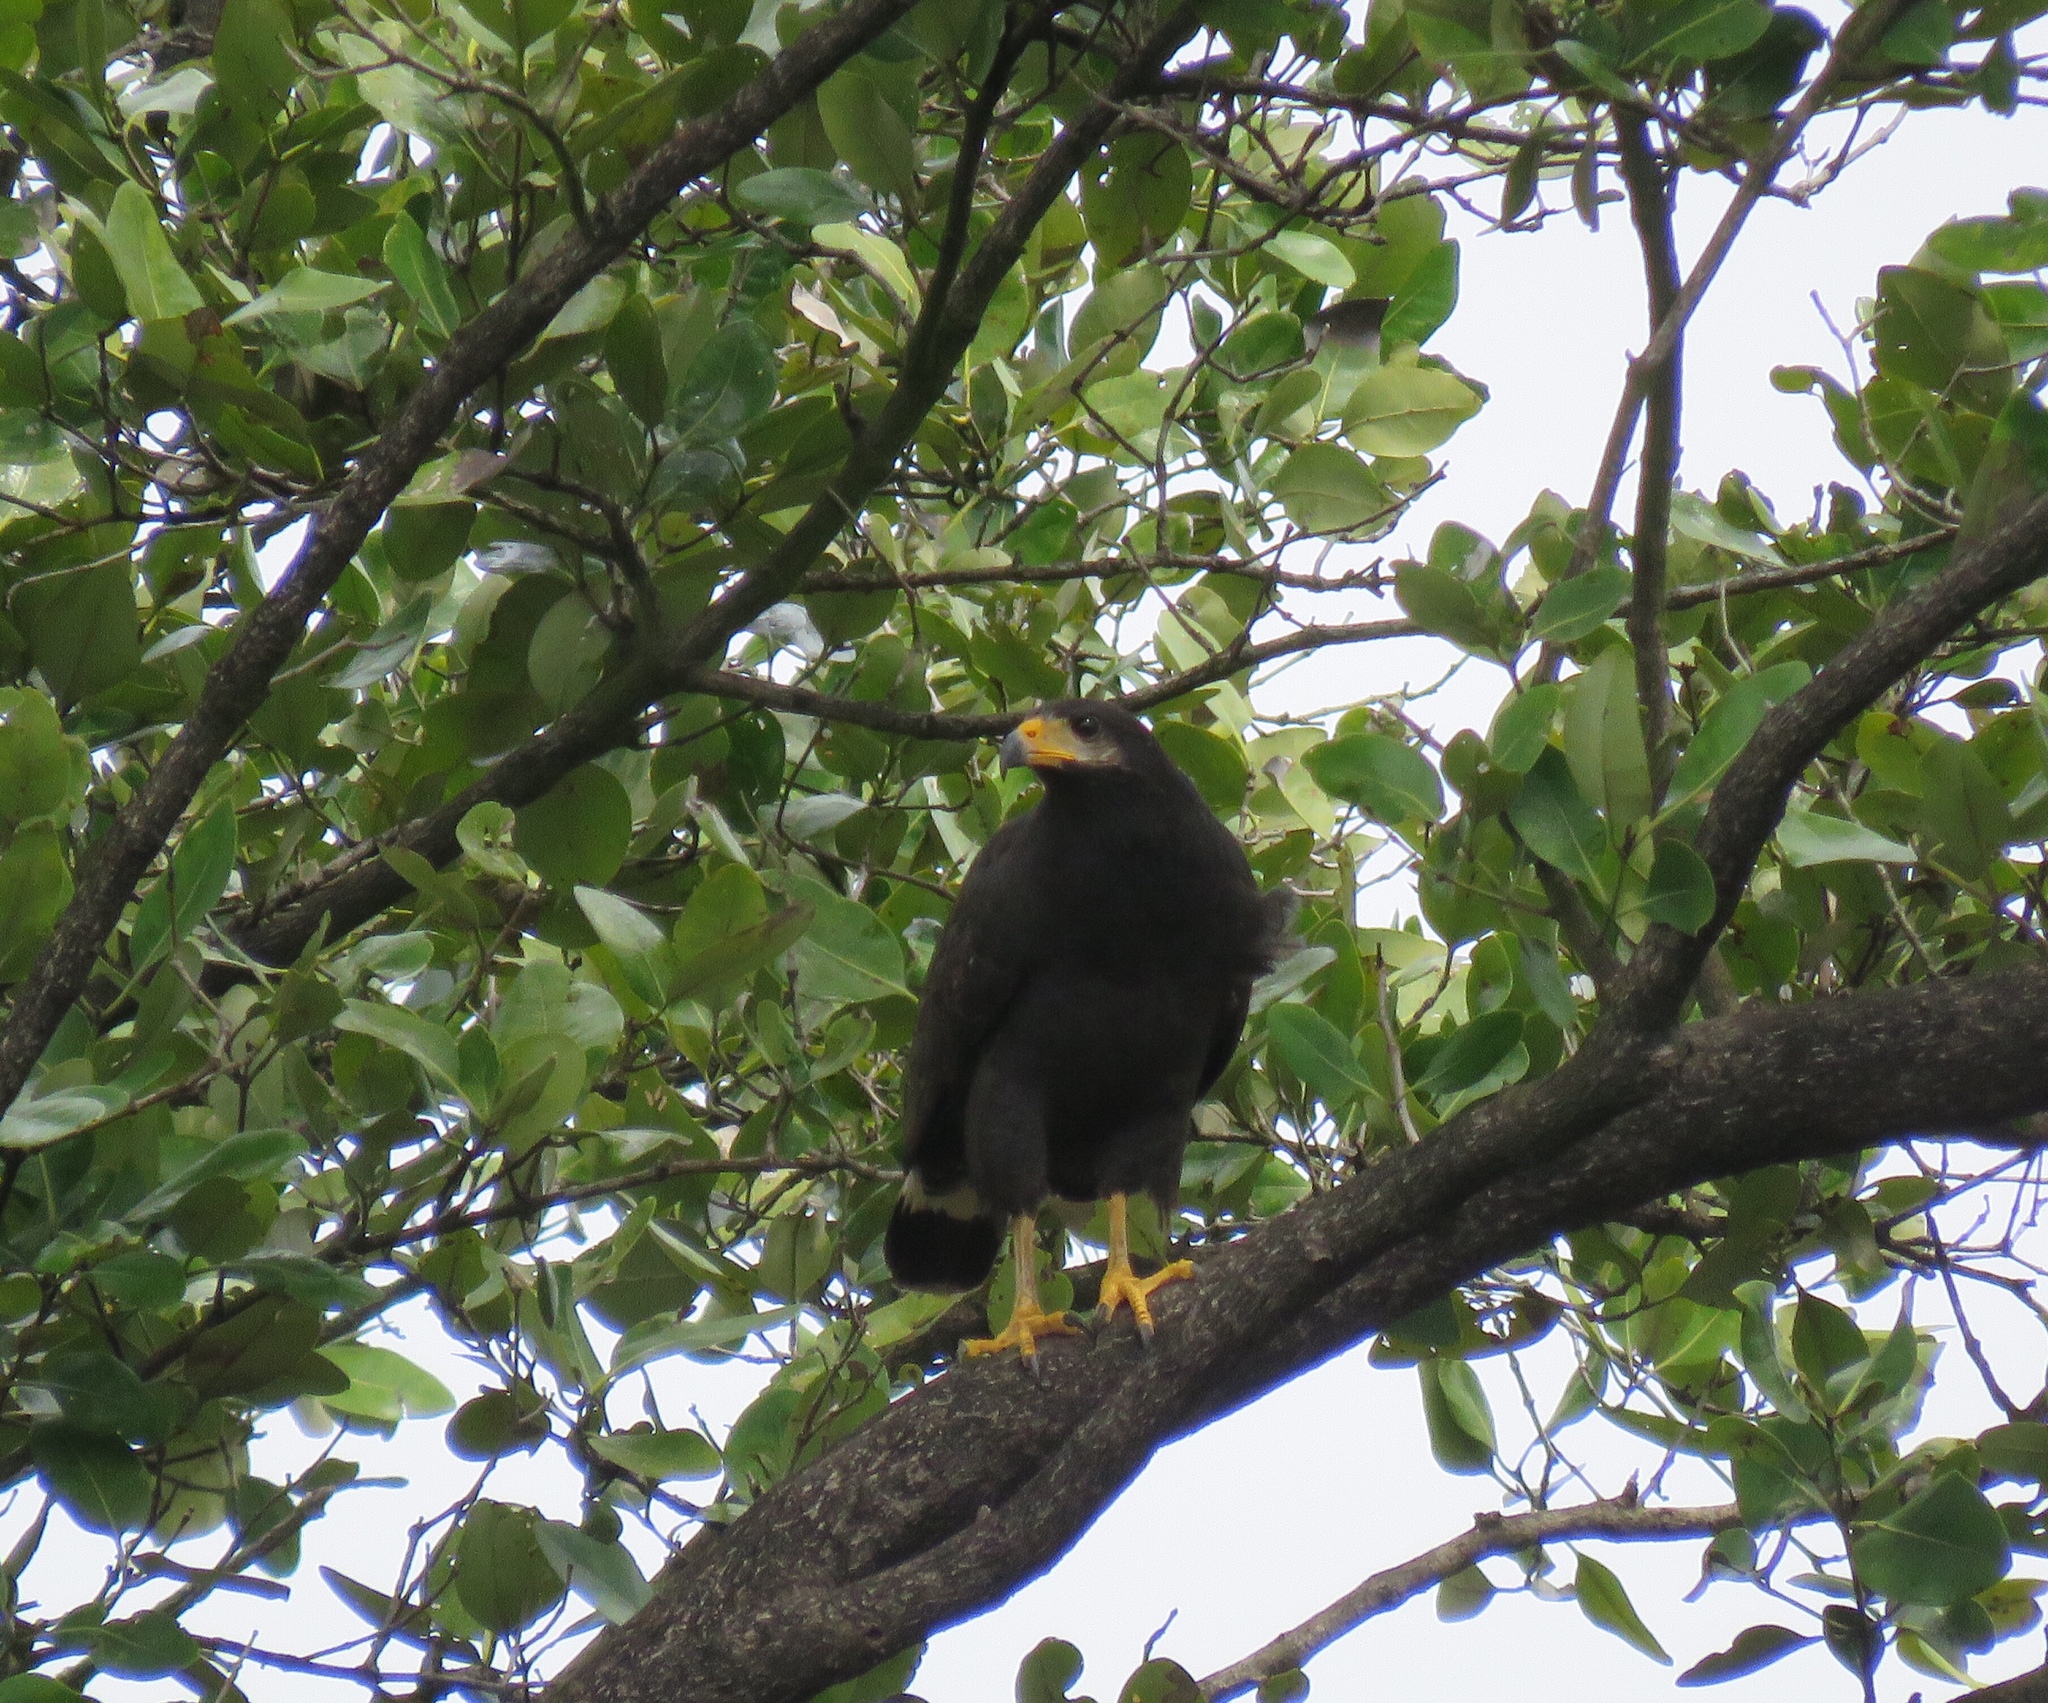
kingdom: Animalia
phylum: Chordata
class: Aves
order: Accipitriformes
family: Accipitridae
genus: Buteogallus
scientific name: Buteogallus anthracinus
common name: Common black hawk
